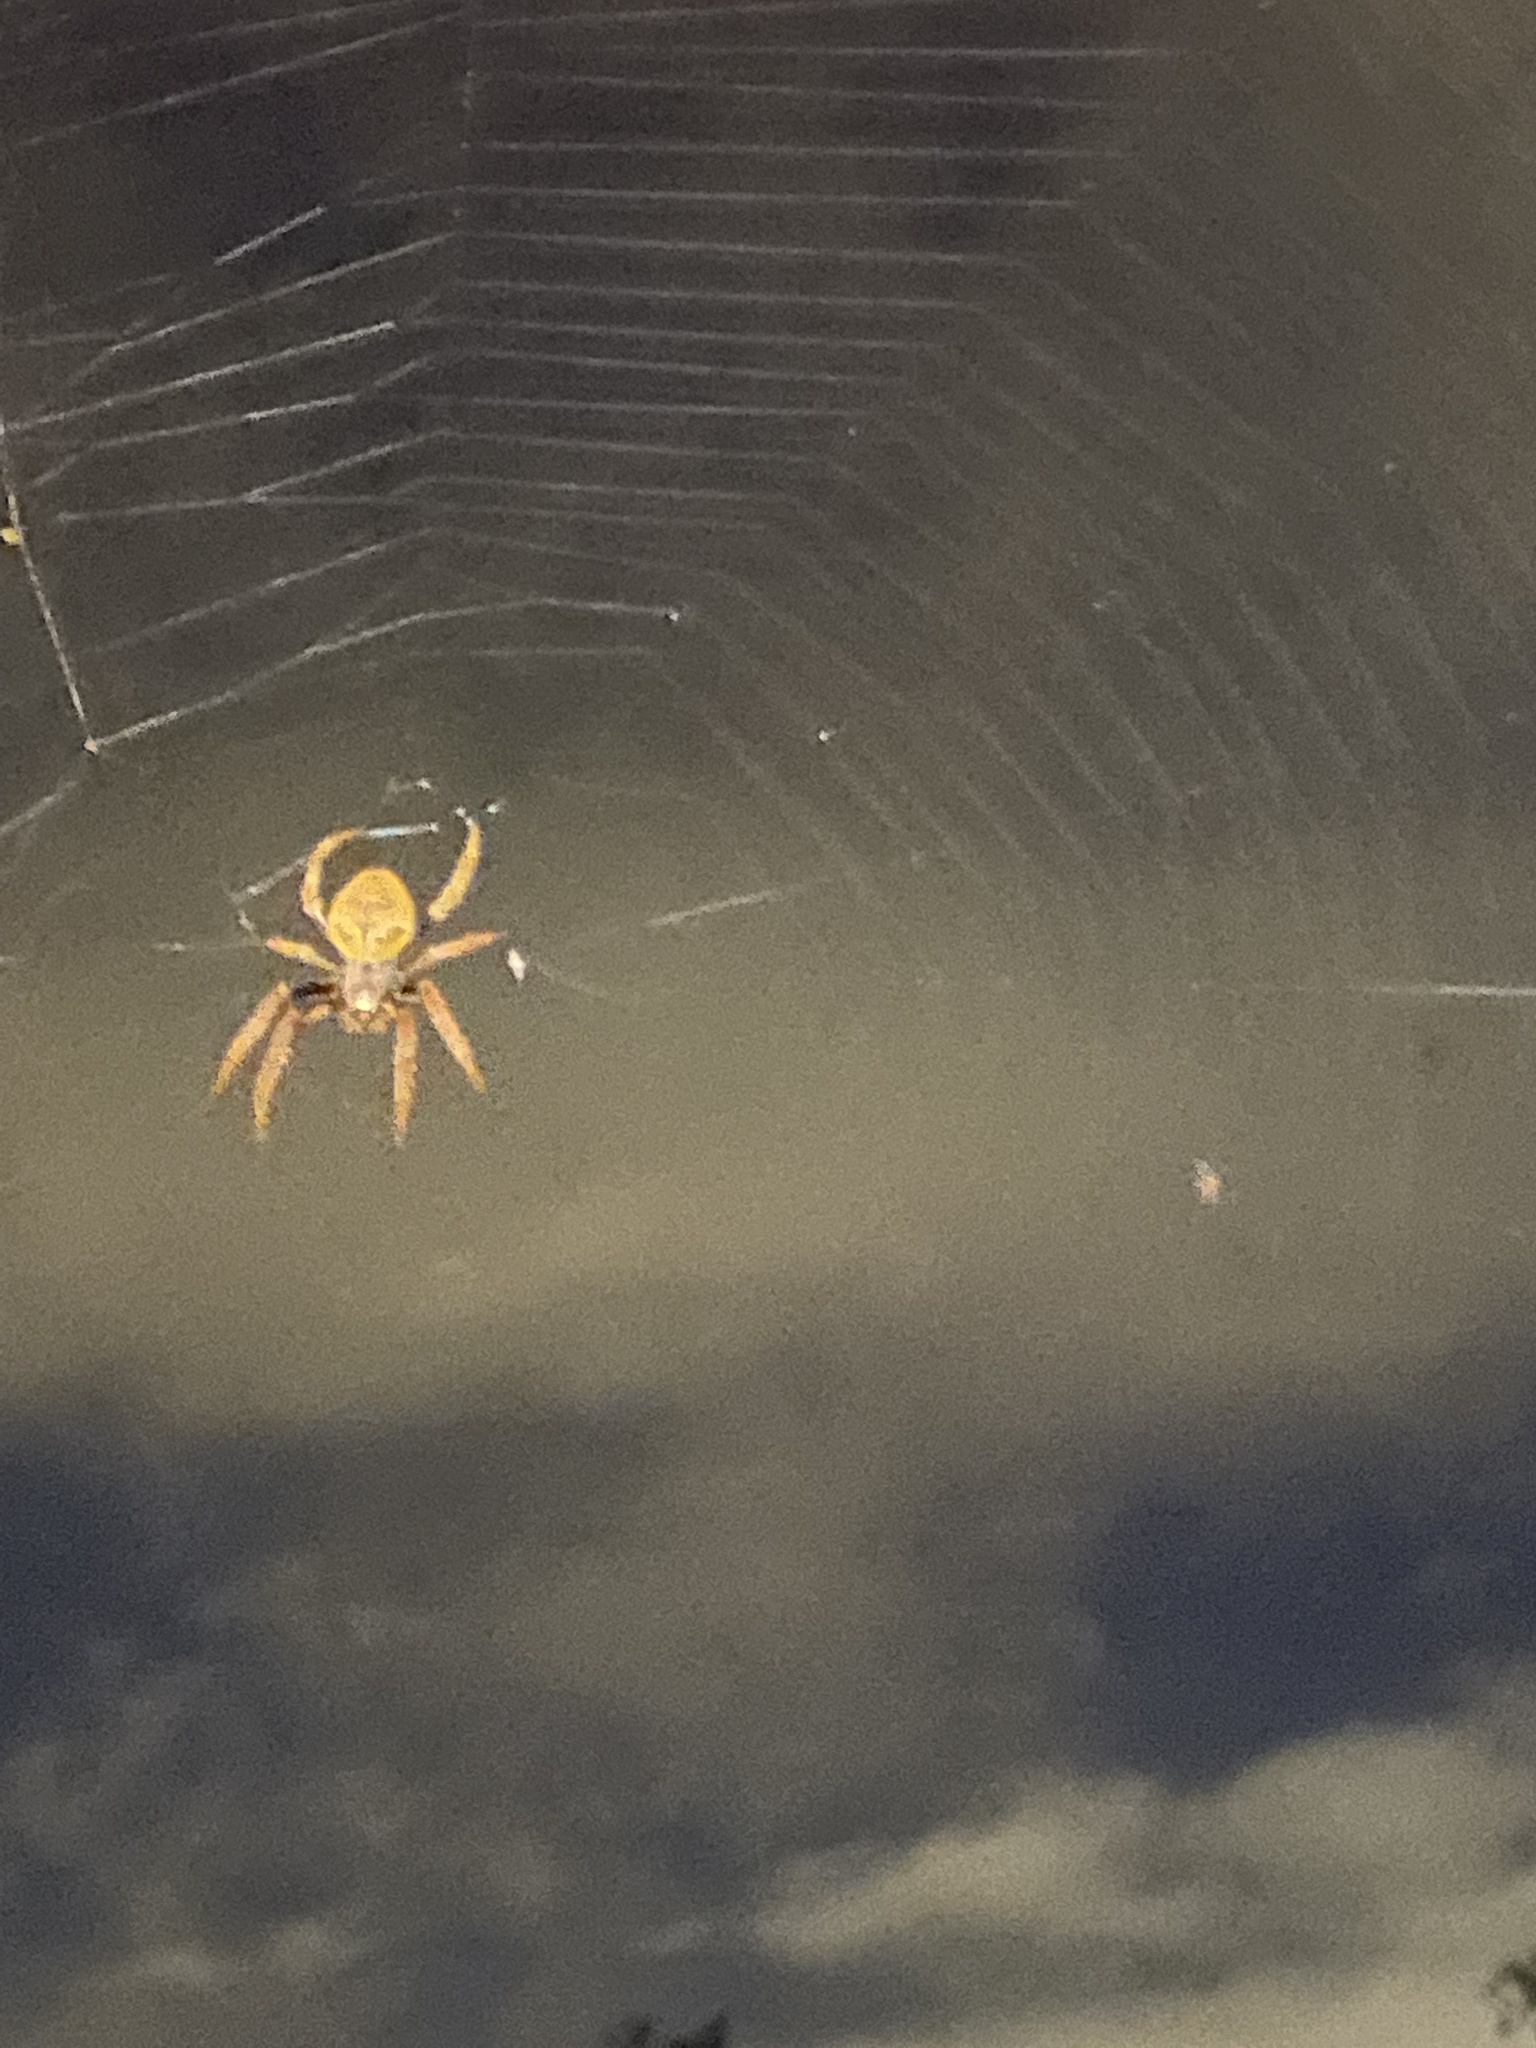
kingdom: Animalia
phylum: Arthropoda
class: Arachnida
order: Araneae
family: Araneidae
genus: Eriophora
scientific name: Eriophora ravilla
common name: Orb weavers
